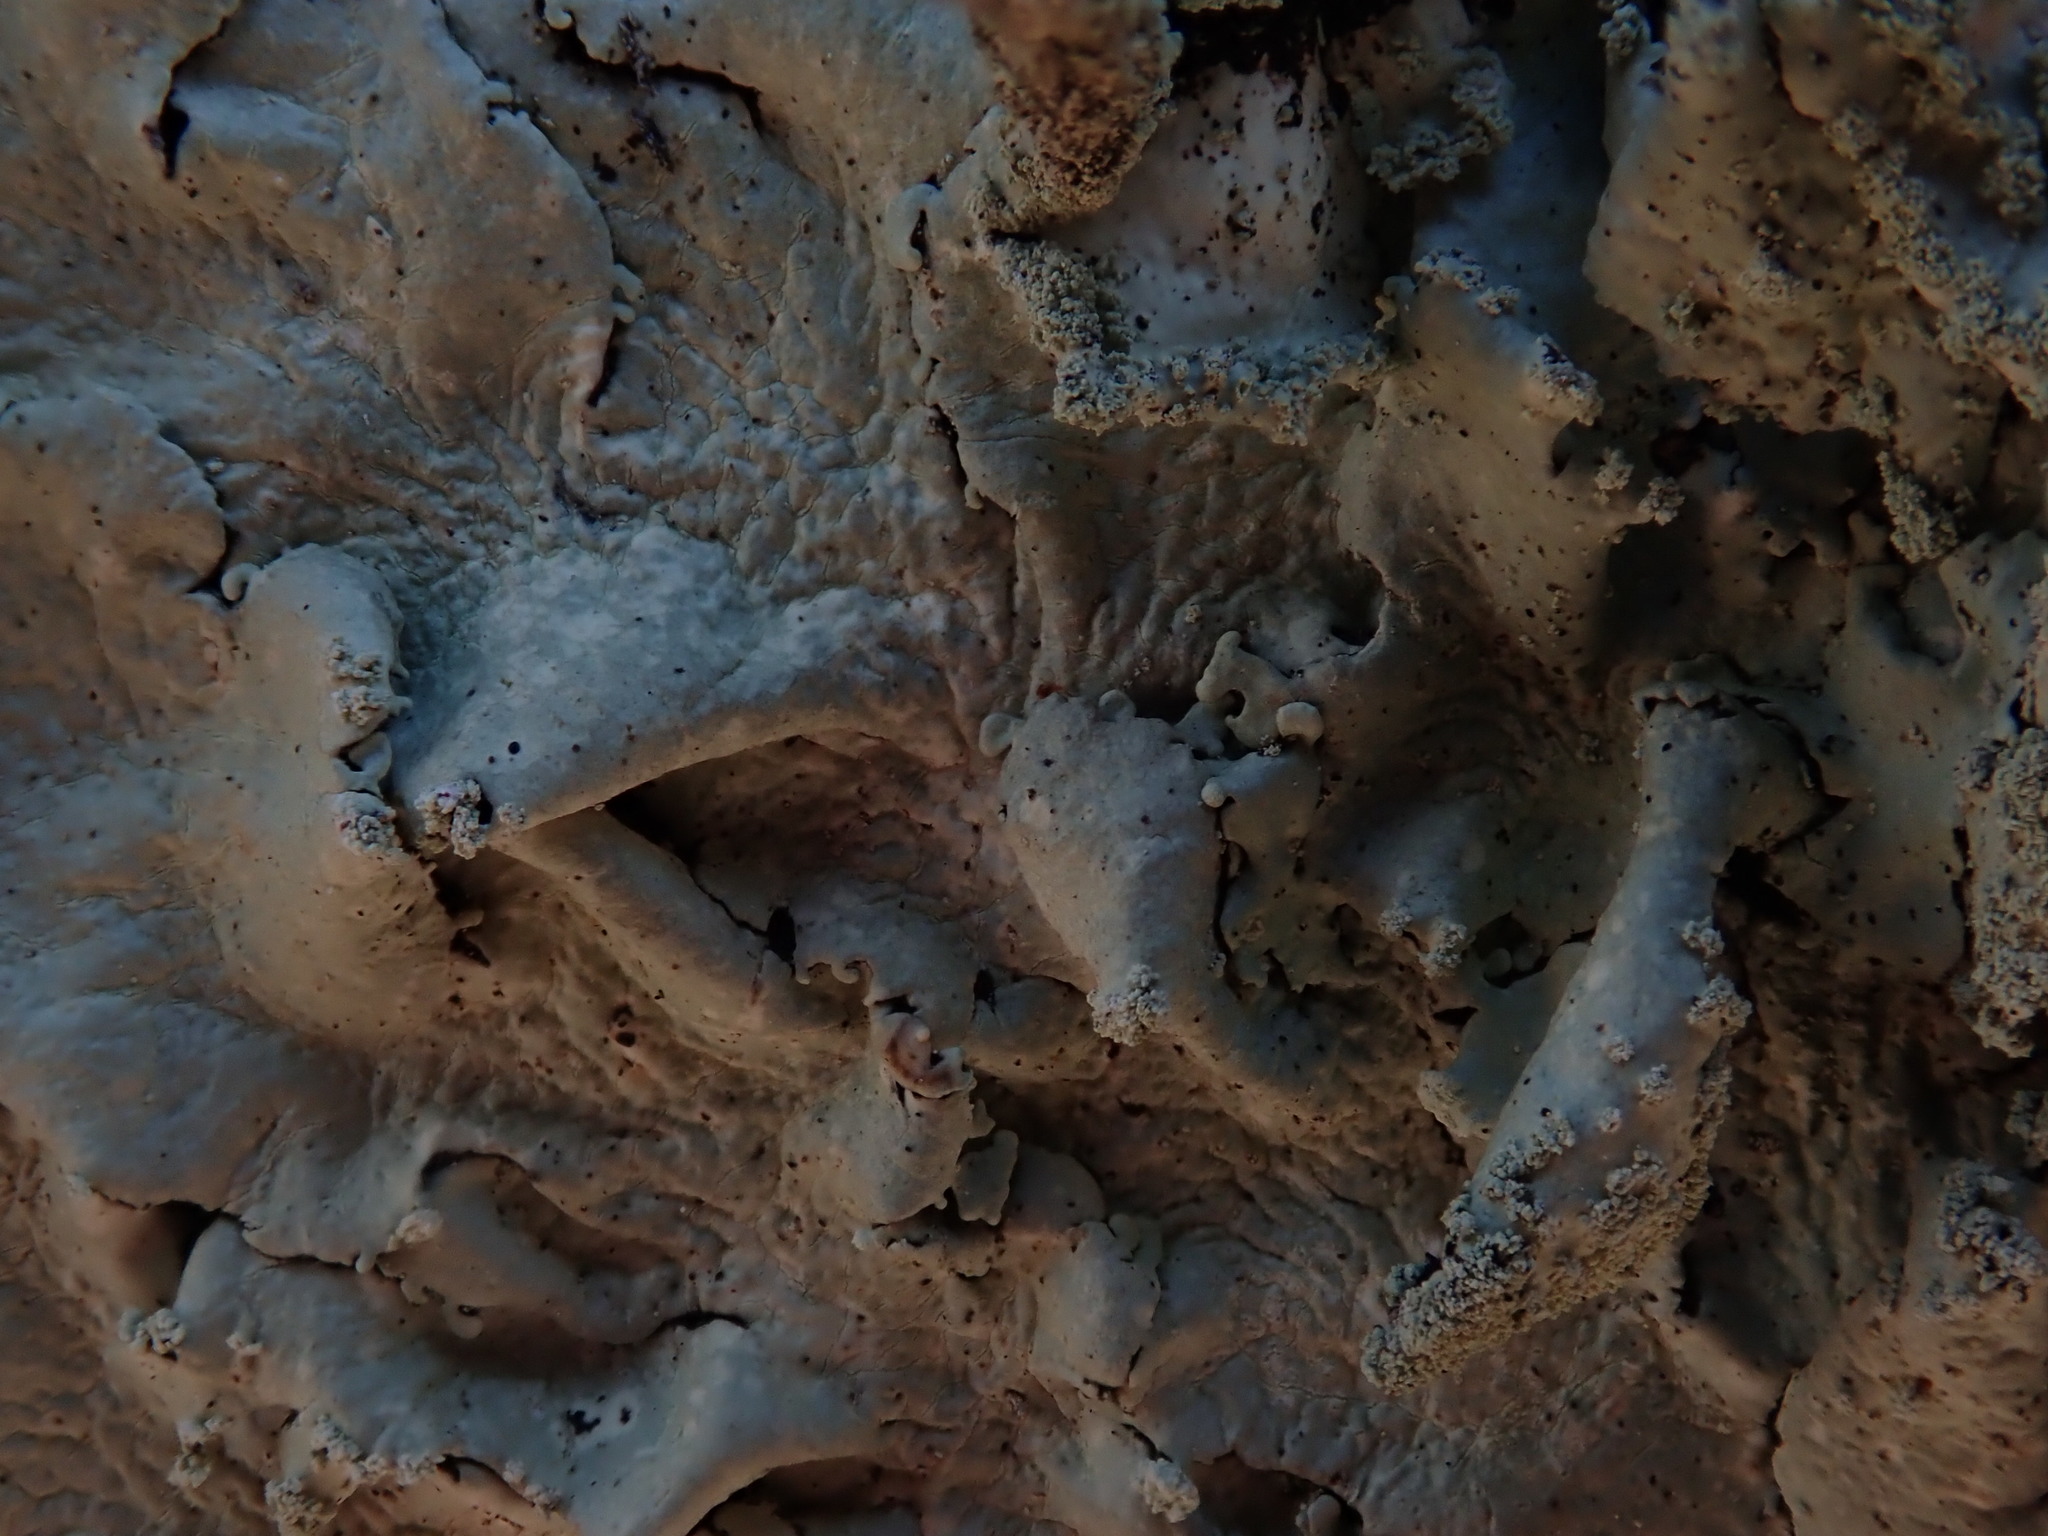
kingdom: Fungi
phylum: Ascomycota
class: Lecanoromycetes
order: Lecanorales
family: Parmeliaceae
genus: Flavoparmelia
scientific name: Flavoparmelia caperata
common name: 40-mile per hour lichen
